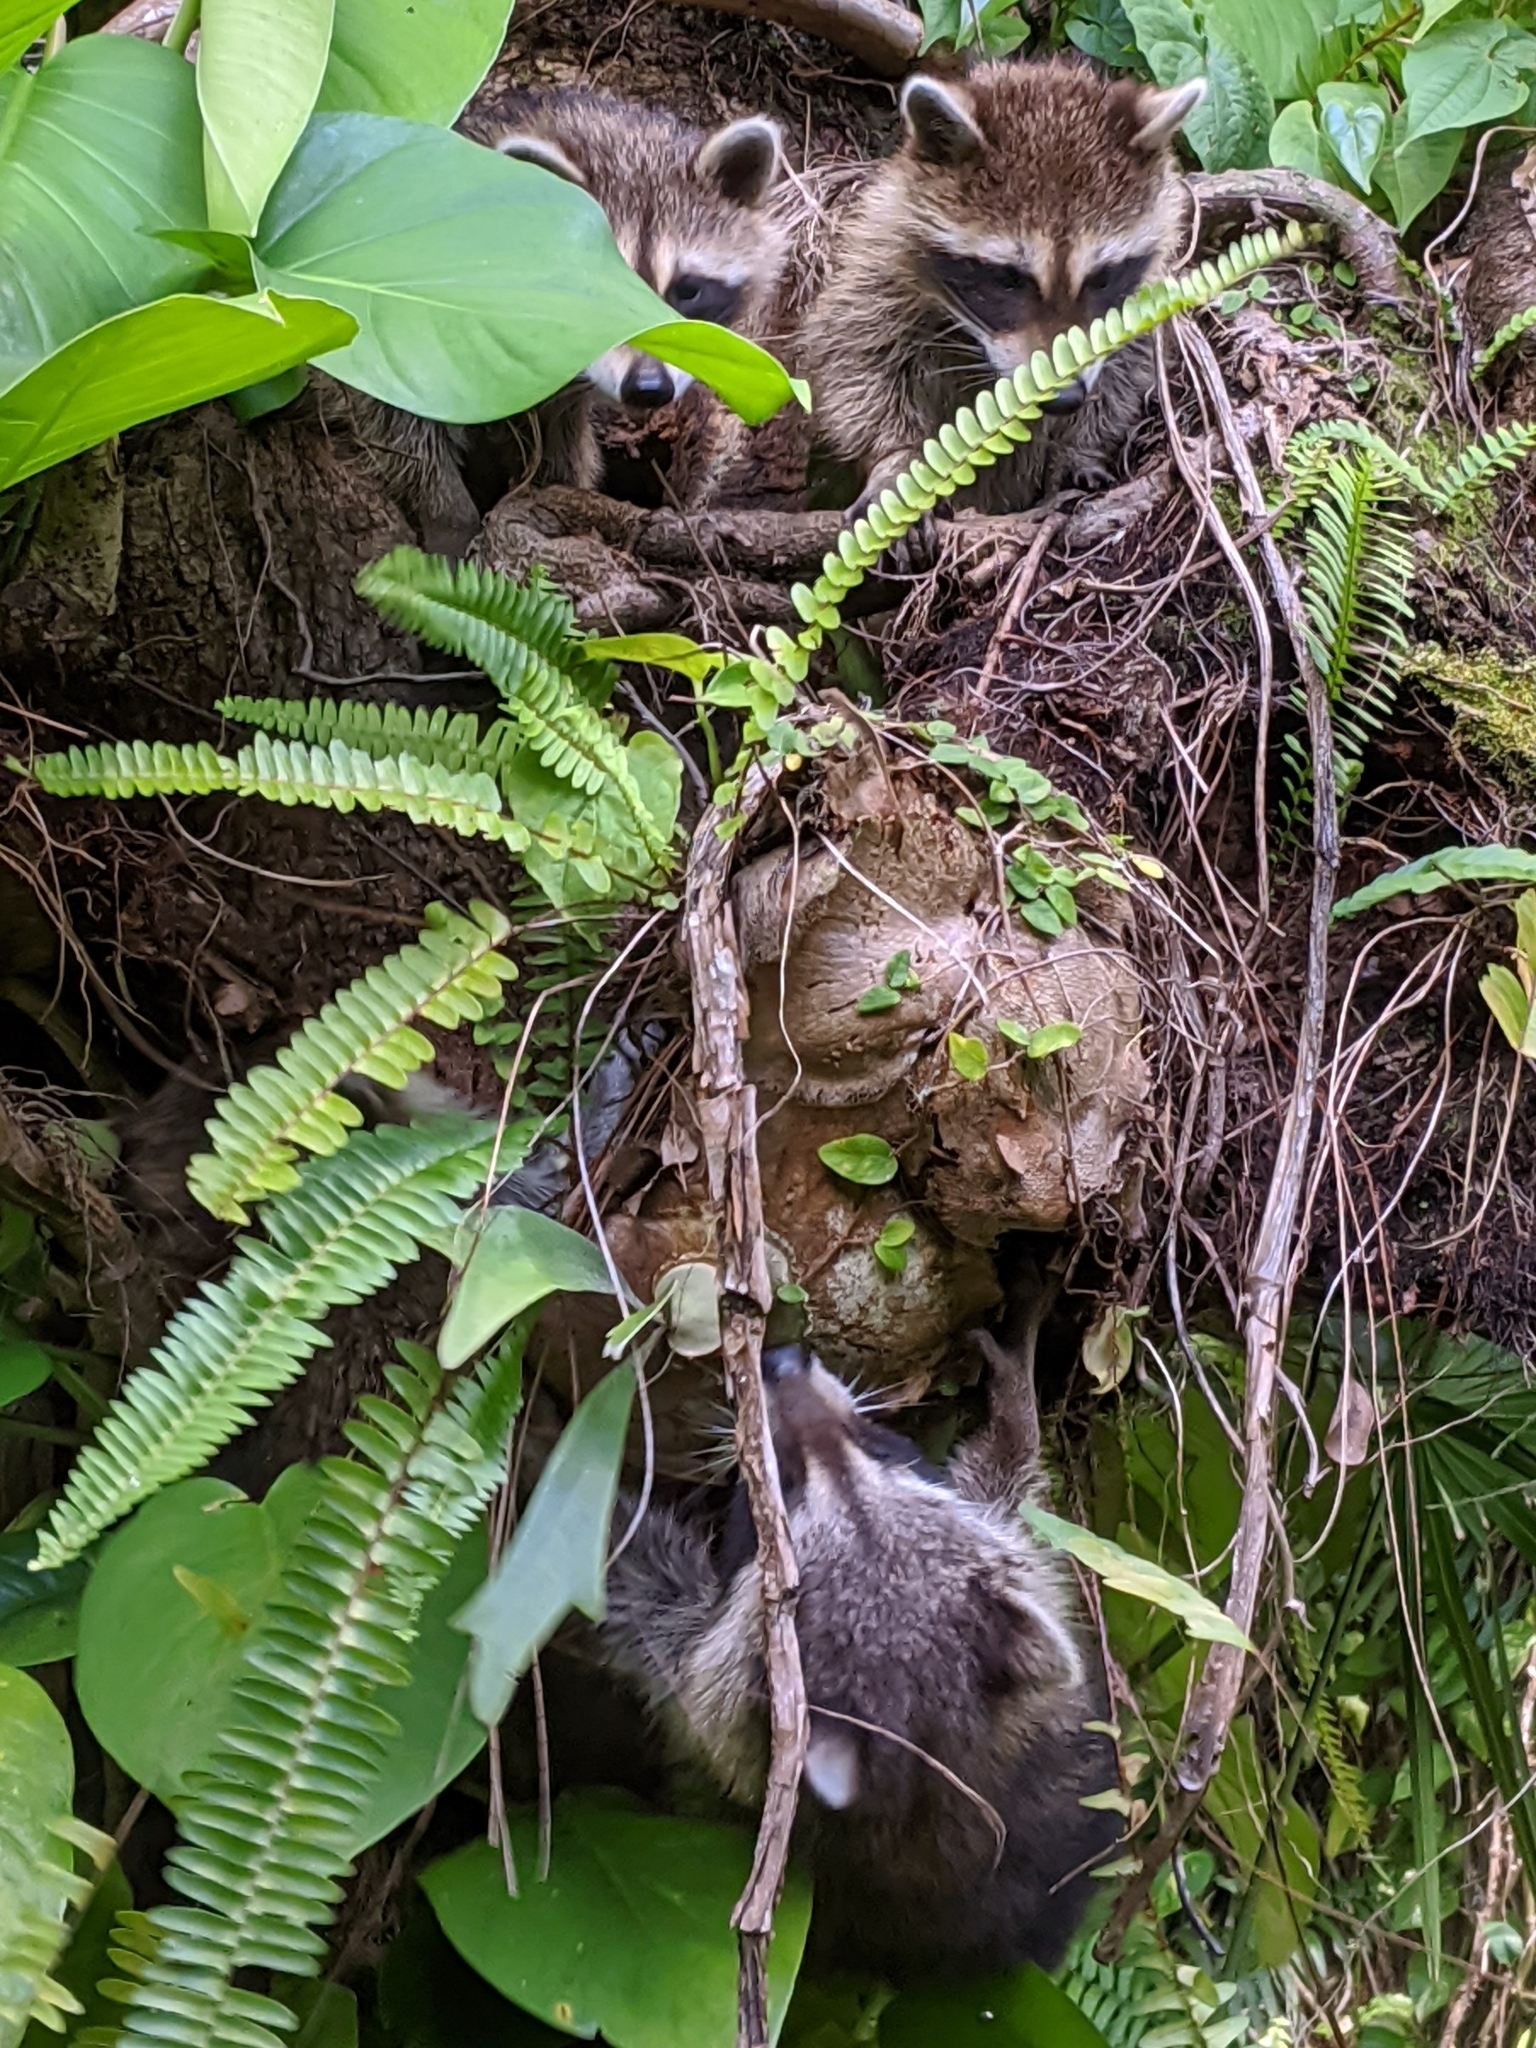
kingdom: Animalia
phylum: Chordata
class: Mammalia
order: Carnivora
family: Procyonidae
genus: Procyon
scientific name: Procyon lotor
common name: Raccoon
